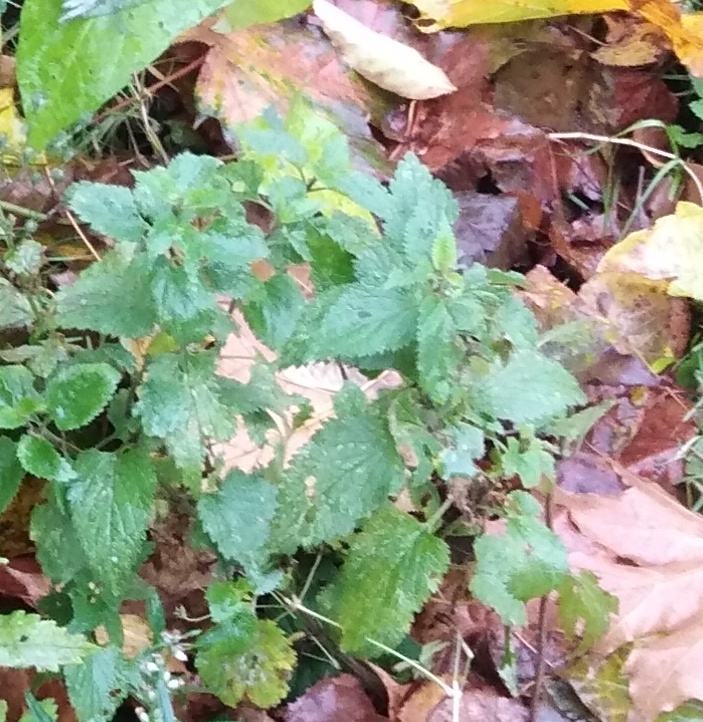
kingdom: Plantae
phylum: Tracheophyta
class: Magnoliopsida
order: Rosales
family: Urticaceae
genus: Urtica
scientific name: Urtica dioica
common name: Common nettle
